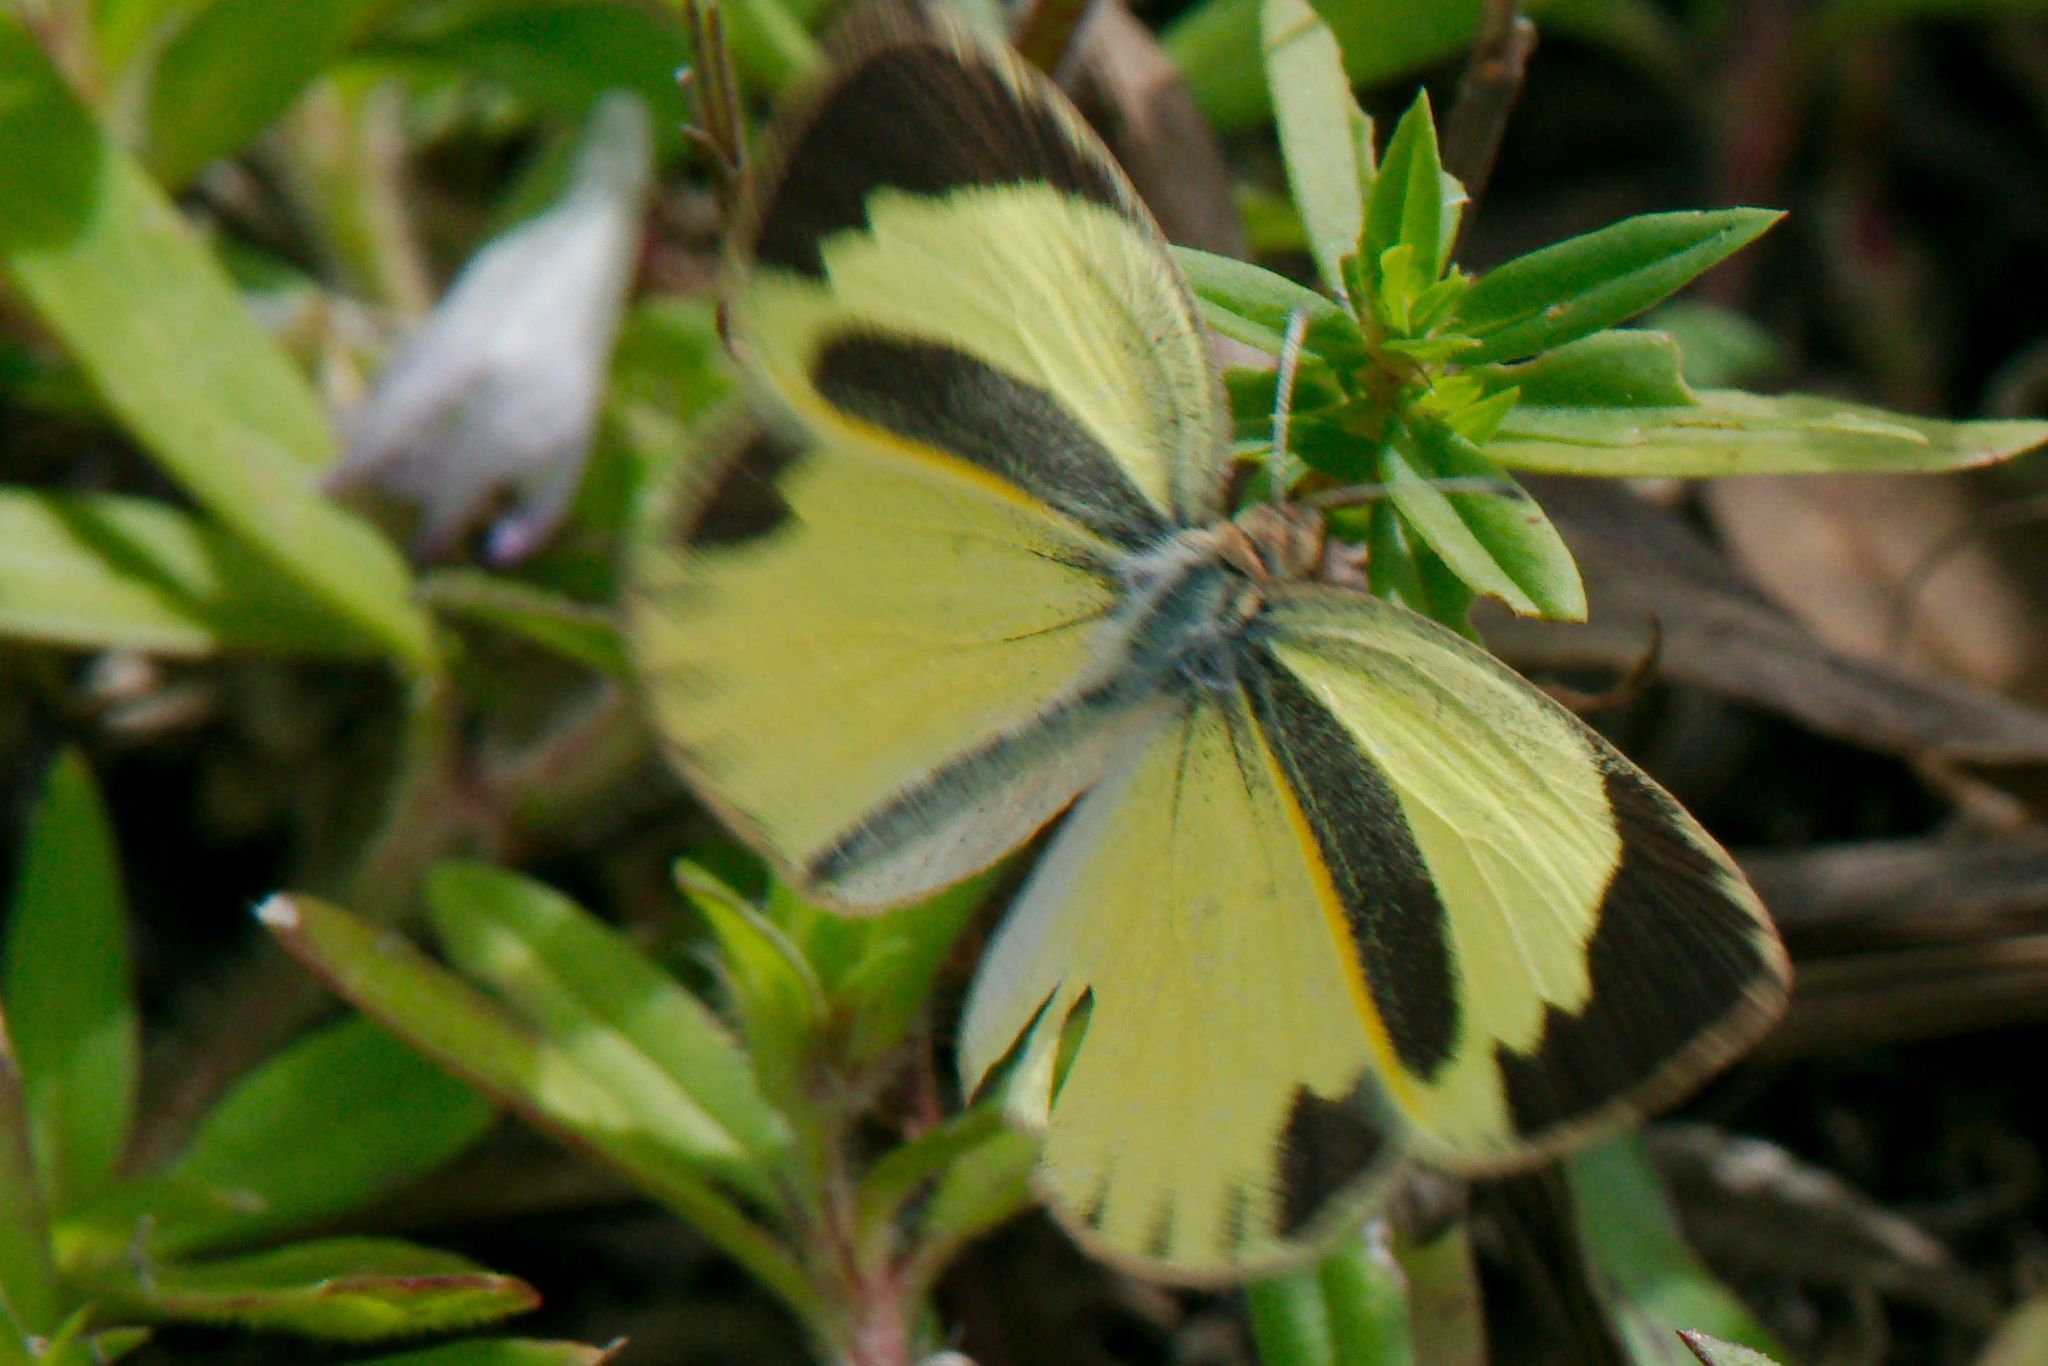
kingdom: Animalia
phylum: Arthropoda
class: Insecta
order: Lepidoptera
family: Pieridae
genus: Eurema
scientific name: Eurema daira
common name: Barred sulphur
